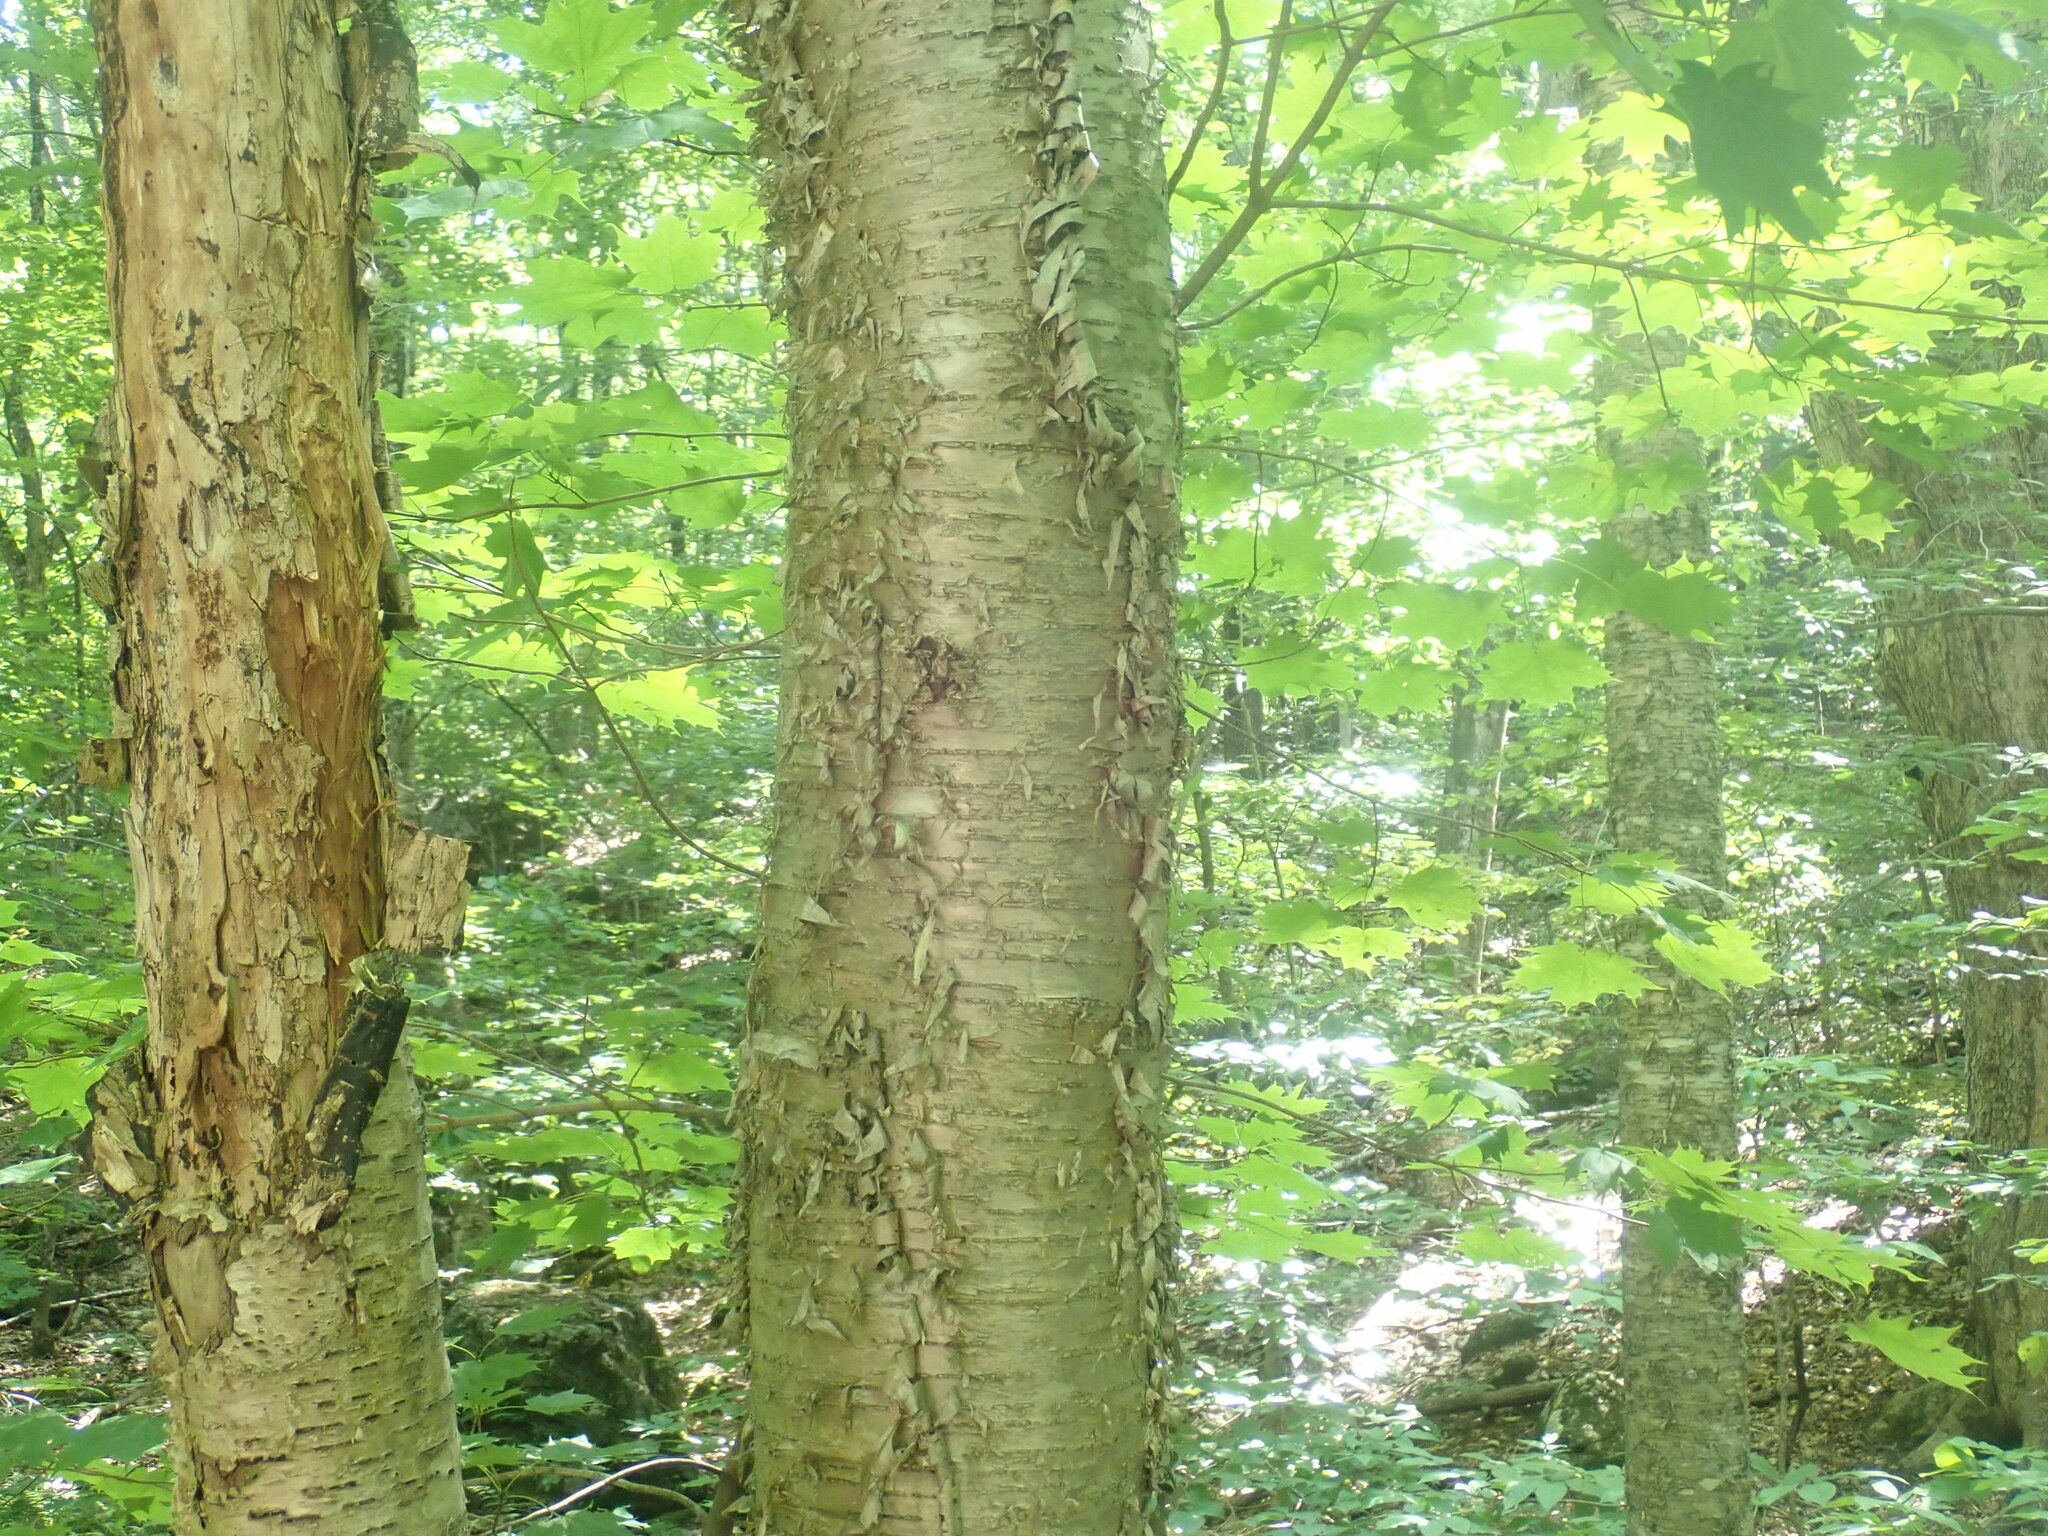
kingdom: Plantae
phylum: Tracheophyta
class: Magnoliopsida
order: Fagales
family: Betulaceae
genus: Betula
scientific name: Betula alleghaniensis
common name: Yellow birch
